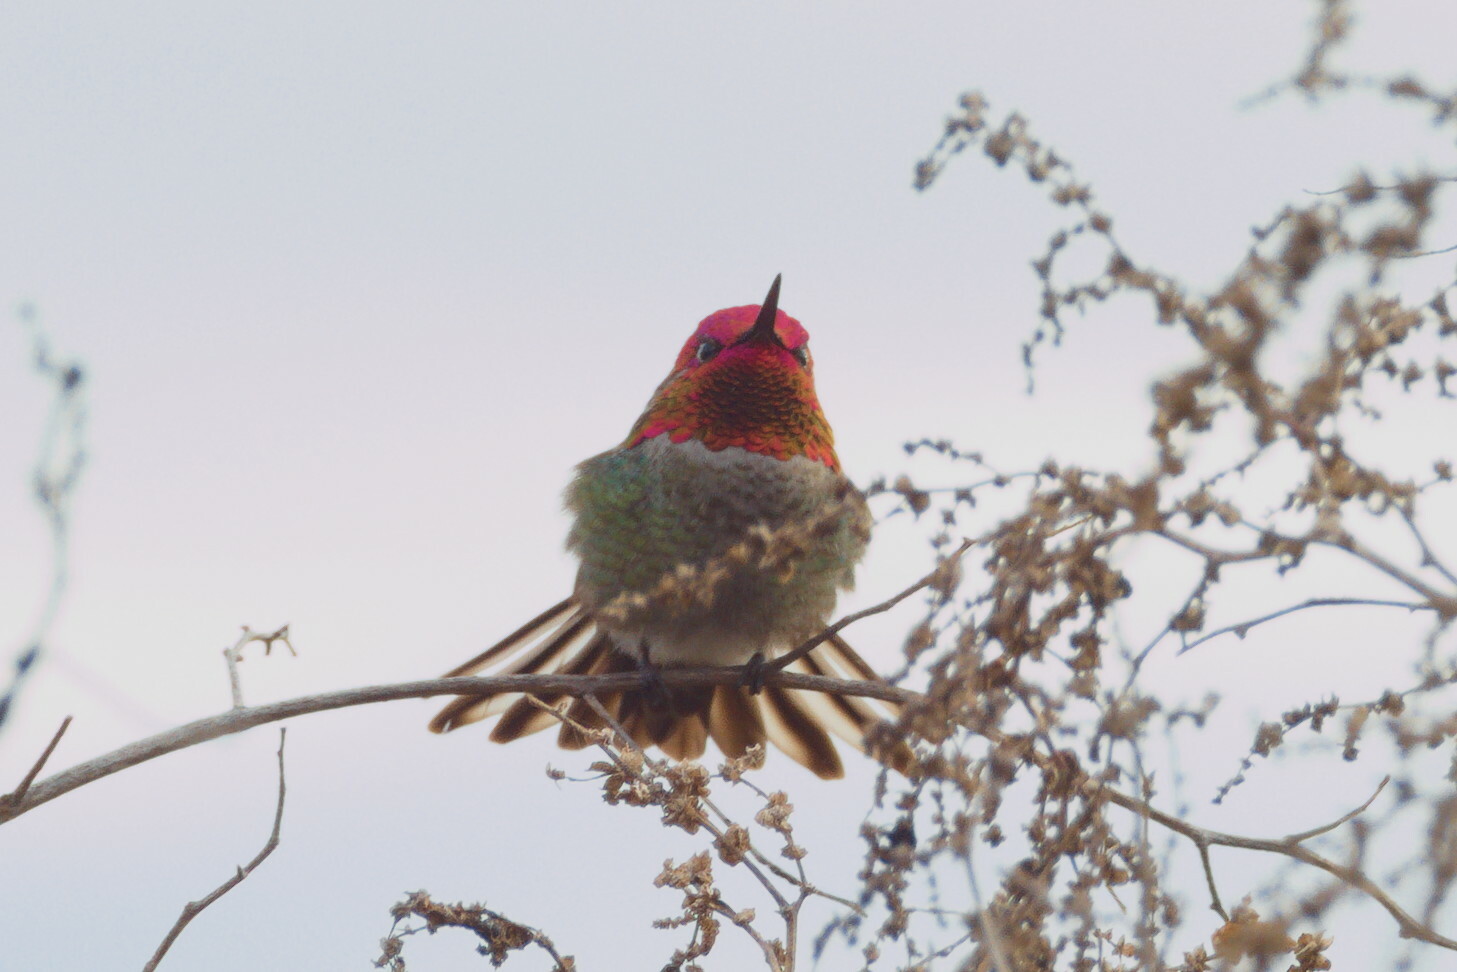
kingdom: Animalia
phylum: Chordata
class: Aves
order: Apodiformes
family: Trochilidae
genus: Calypte
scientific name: Calypte anna
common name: Anna's hummingbird
